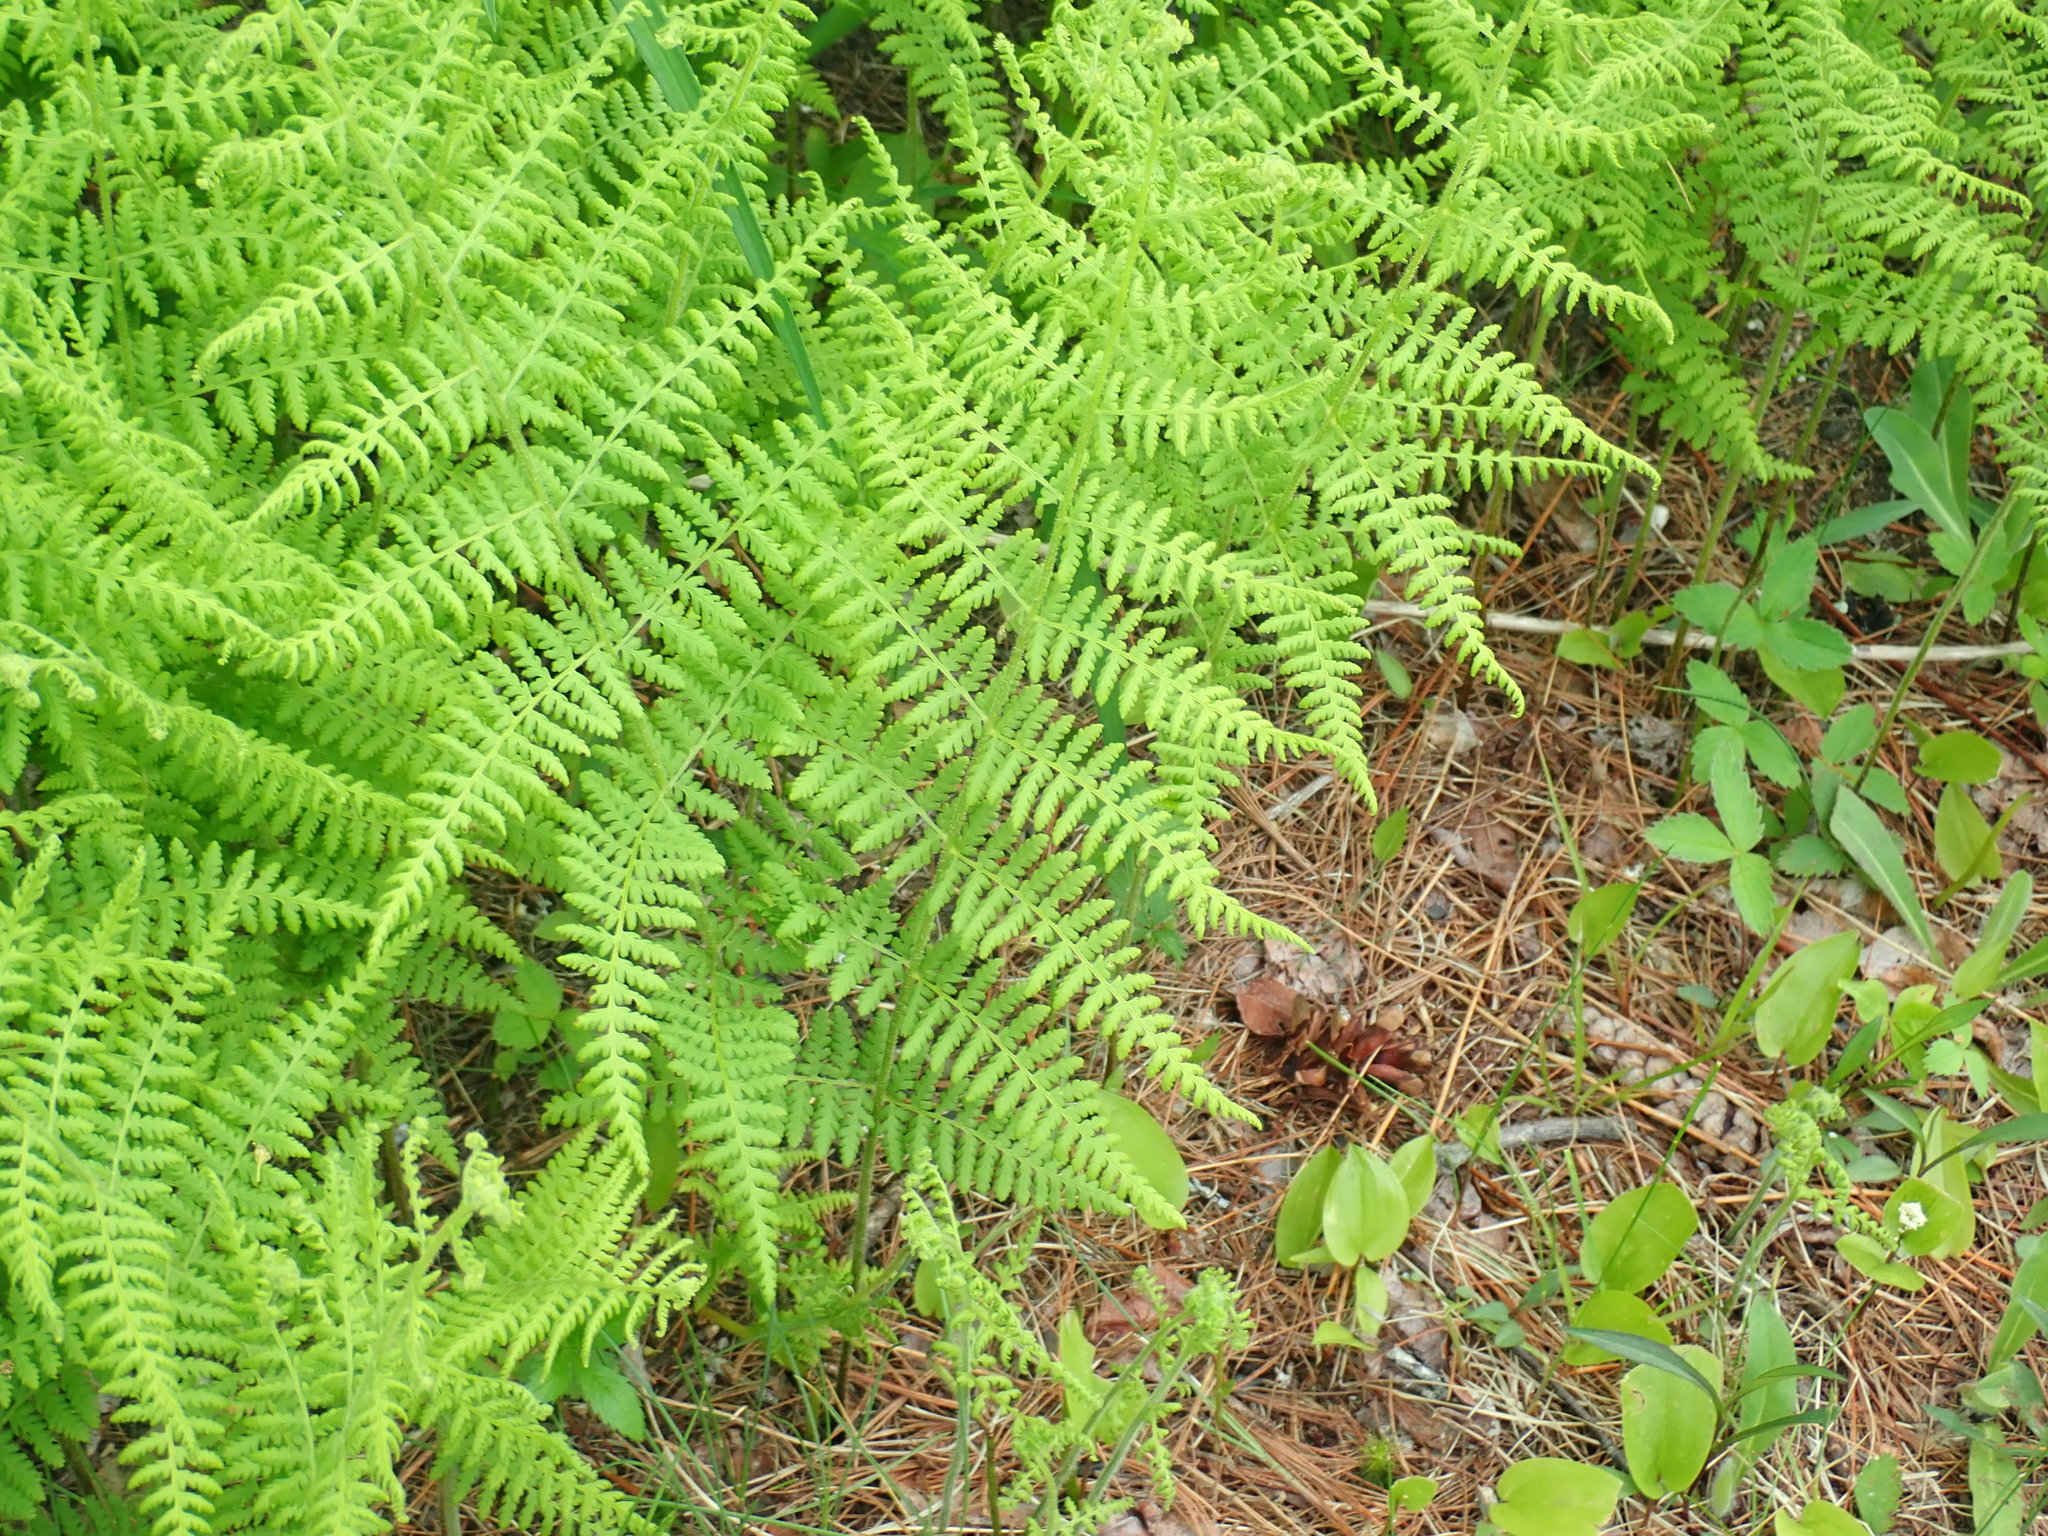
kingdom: Plantae
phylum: Tracheophyta
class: Polypodiopsida
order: Polypodiales
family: Dennstaedtiaceae
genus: Sitobolium
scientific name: Sitobolium punctilobum
